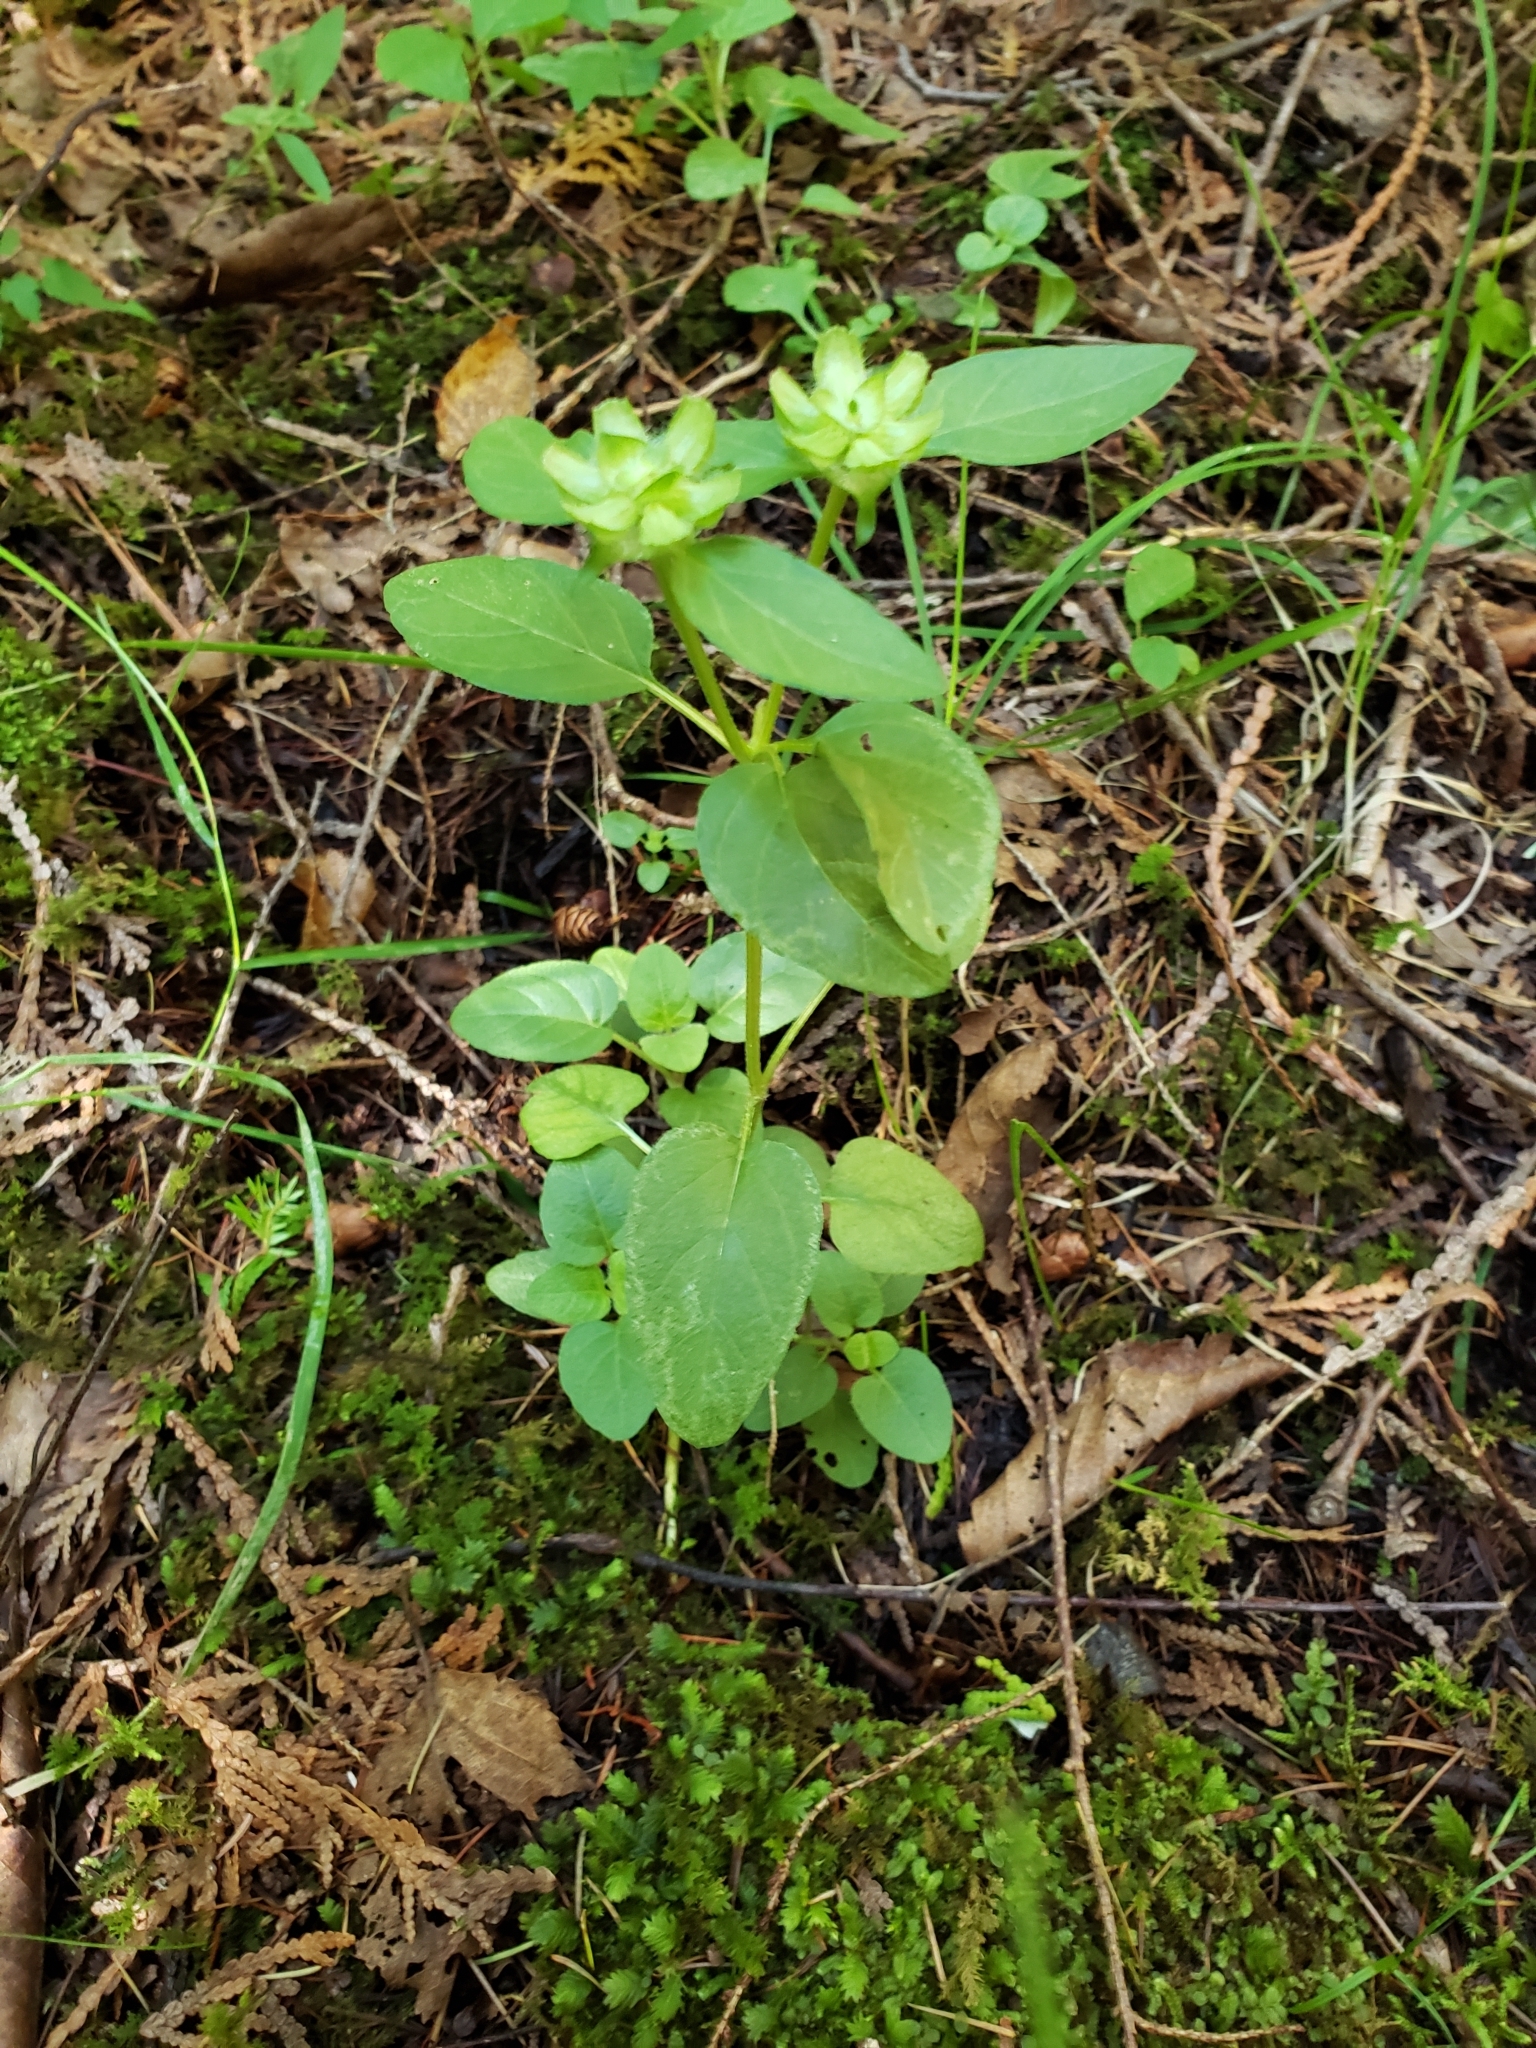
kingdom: Plantae
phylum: Tracheophyta
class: Magnoliopsida
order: Lamiales
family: Lamiaceae
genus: Prunella
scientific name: Prunella vulgaris
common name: Heal-all
